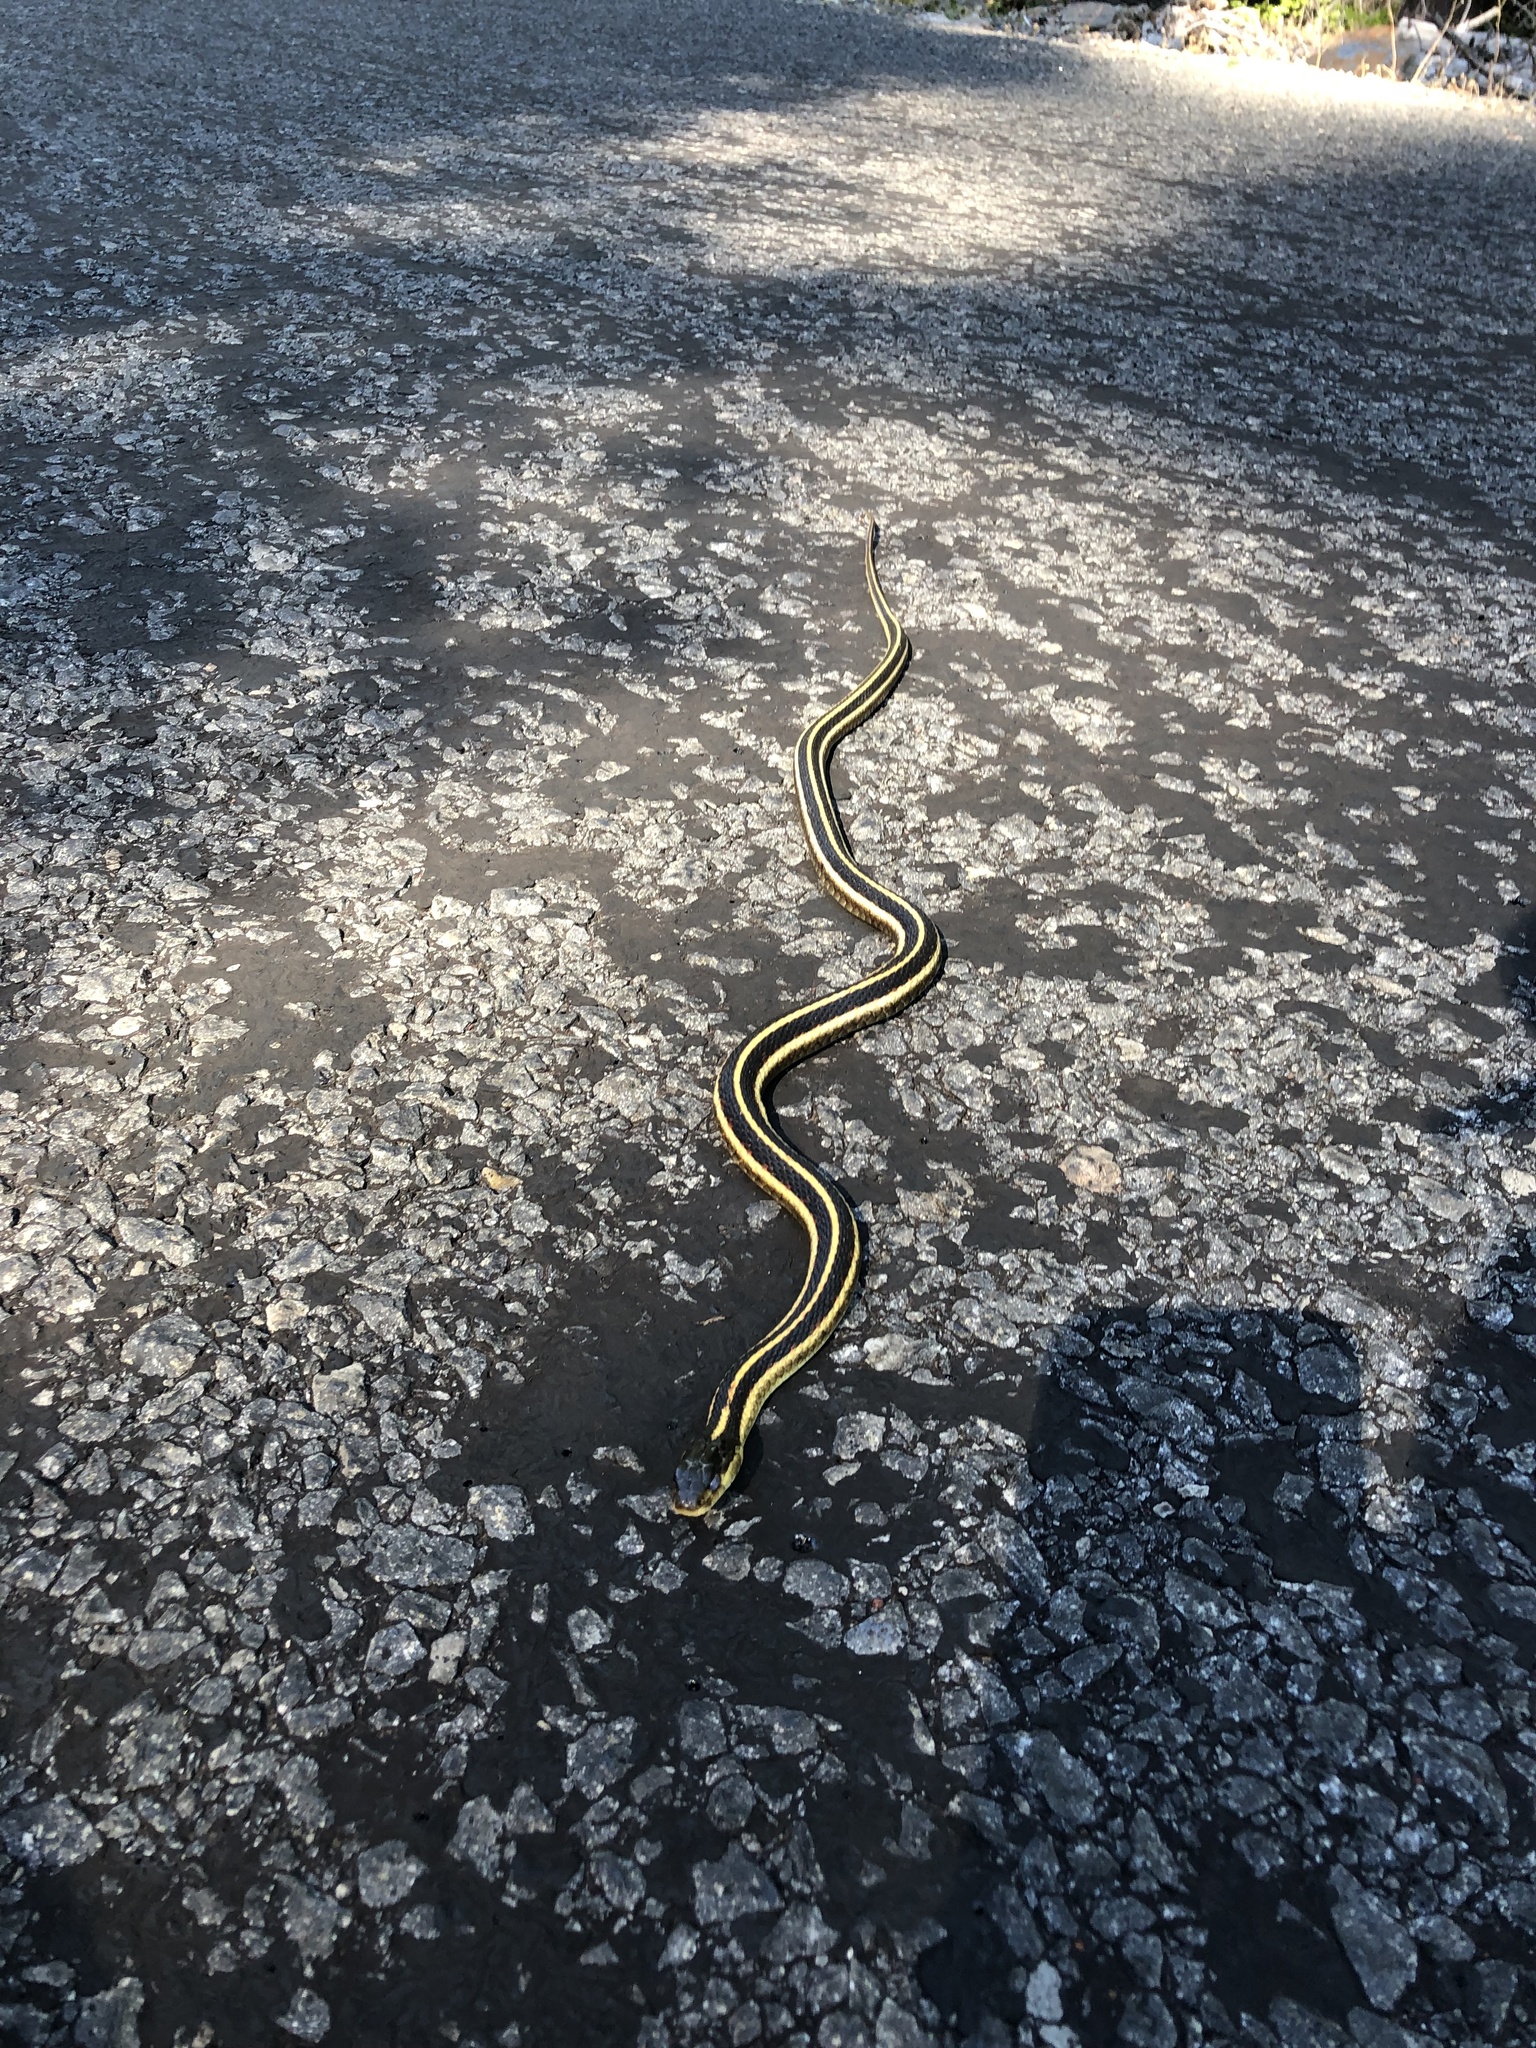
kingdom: Animalia
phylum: Chordata
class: Squamata
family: Colubridae
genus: Thamnophis
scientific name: Thamnophis sirtalis
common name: Common garter snake
